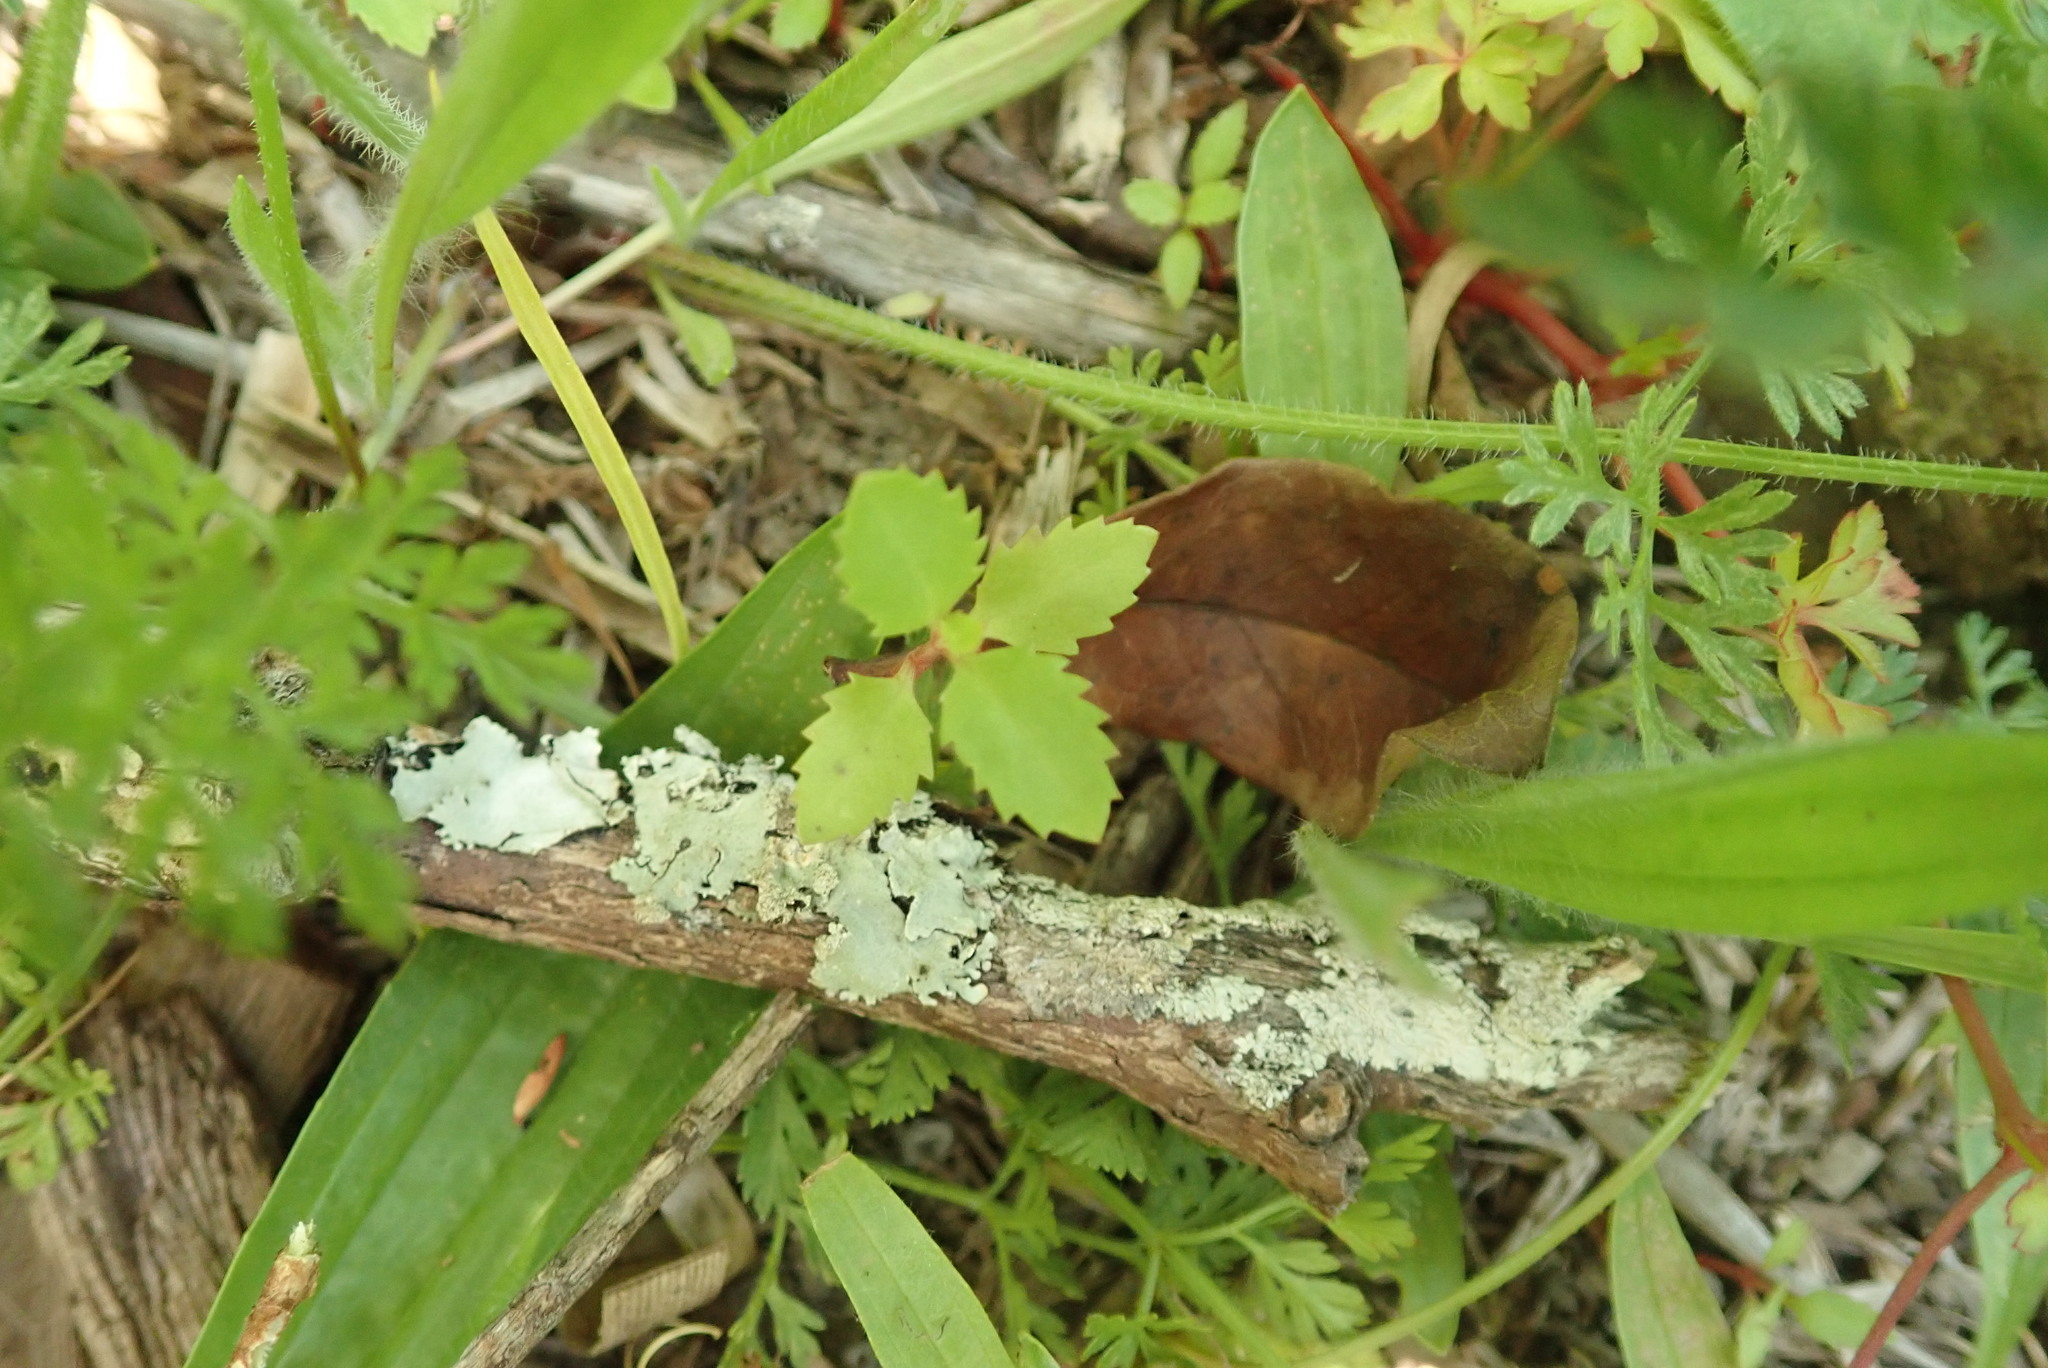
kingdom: Plantae
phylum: Tracheophyta
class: Magnoliopsida
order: Saxifragales
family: Haloragaceae
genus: Haloragis
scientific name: Haloragis erecta
